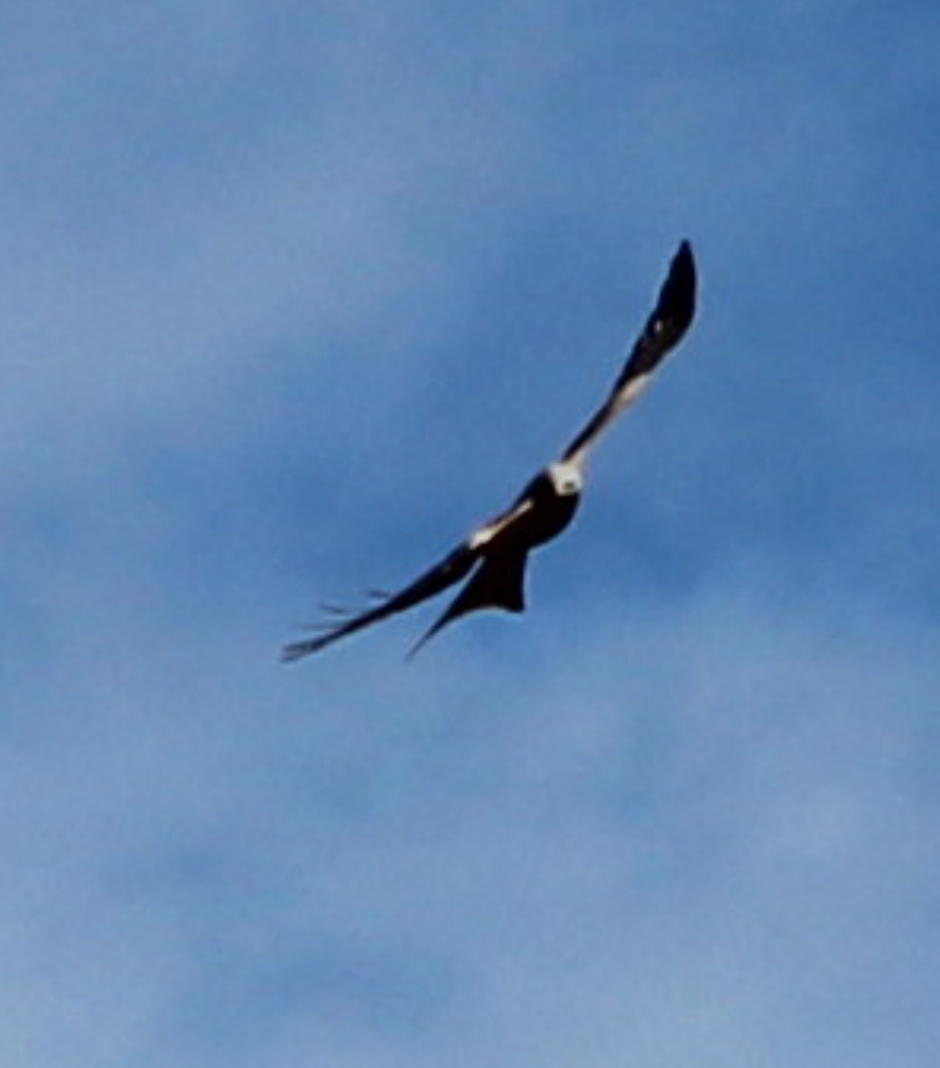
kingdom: Animalia
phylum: Chordata
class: Aves
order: Accipitriformes
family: Accipitridae
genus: Milvus
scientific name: Milvus milvus
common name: Red kite
